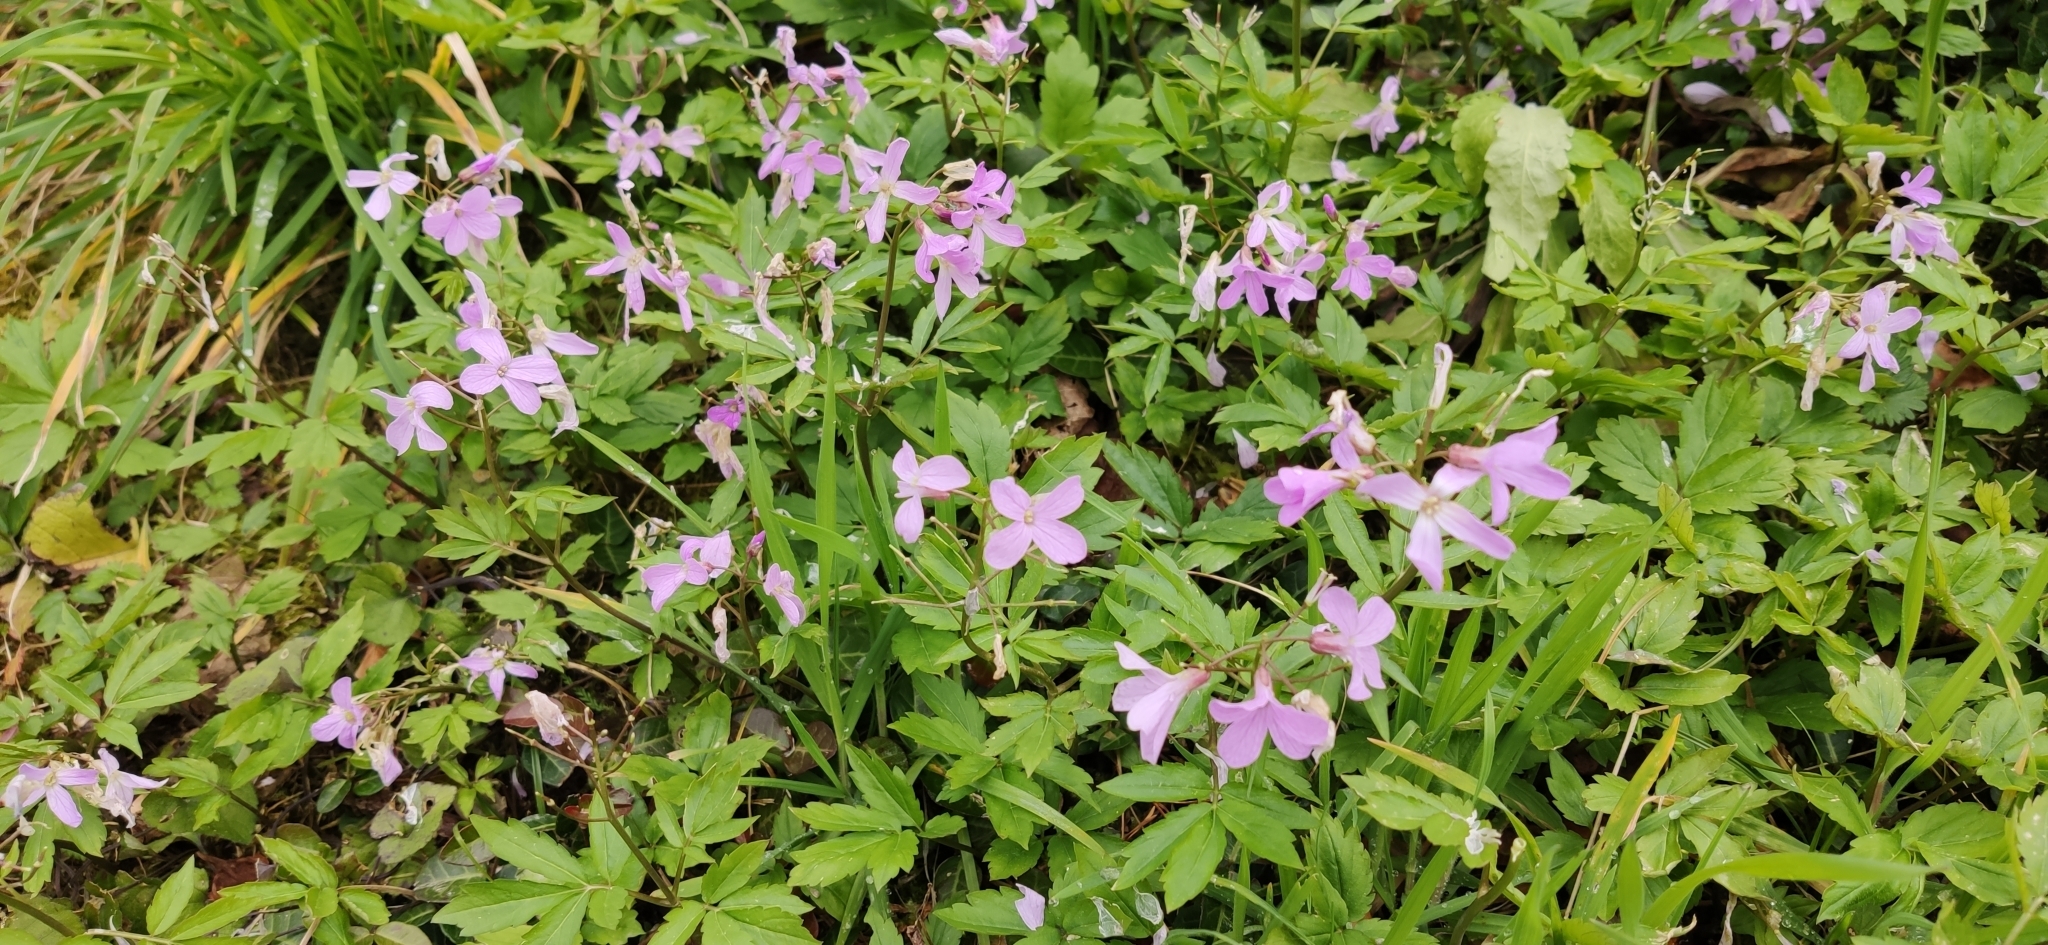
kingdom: Plantae
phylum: Tracheophyta
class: Magnoliopsida
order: Brassicales
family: Brassicaceae
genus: Cardamine
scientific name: Cardamine quinquefolia
